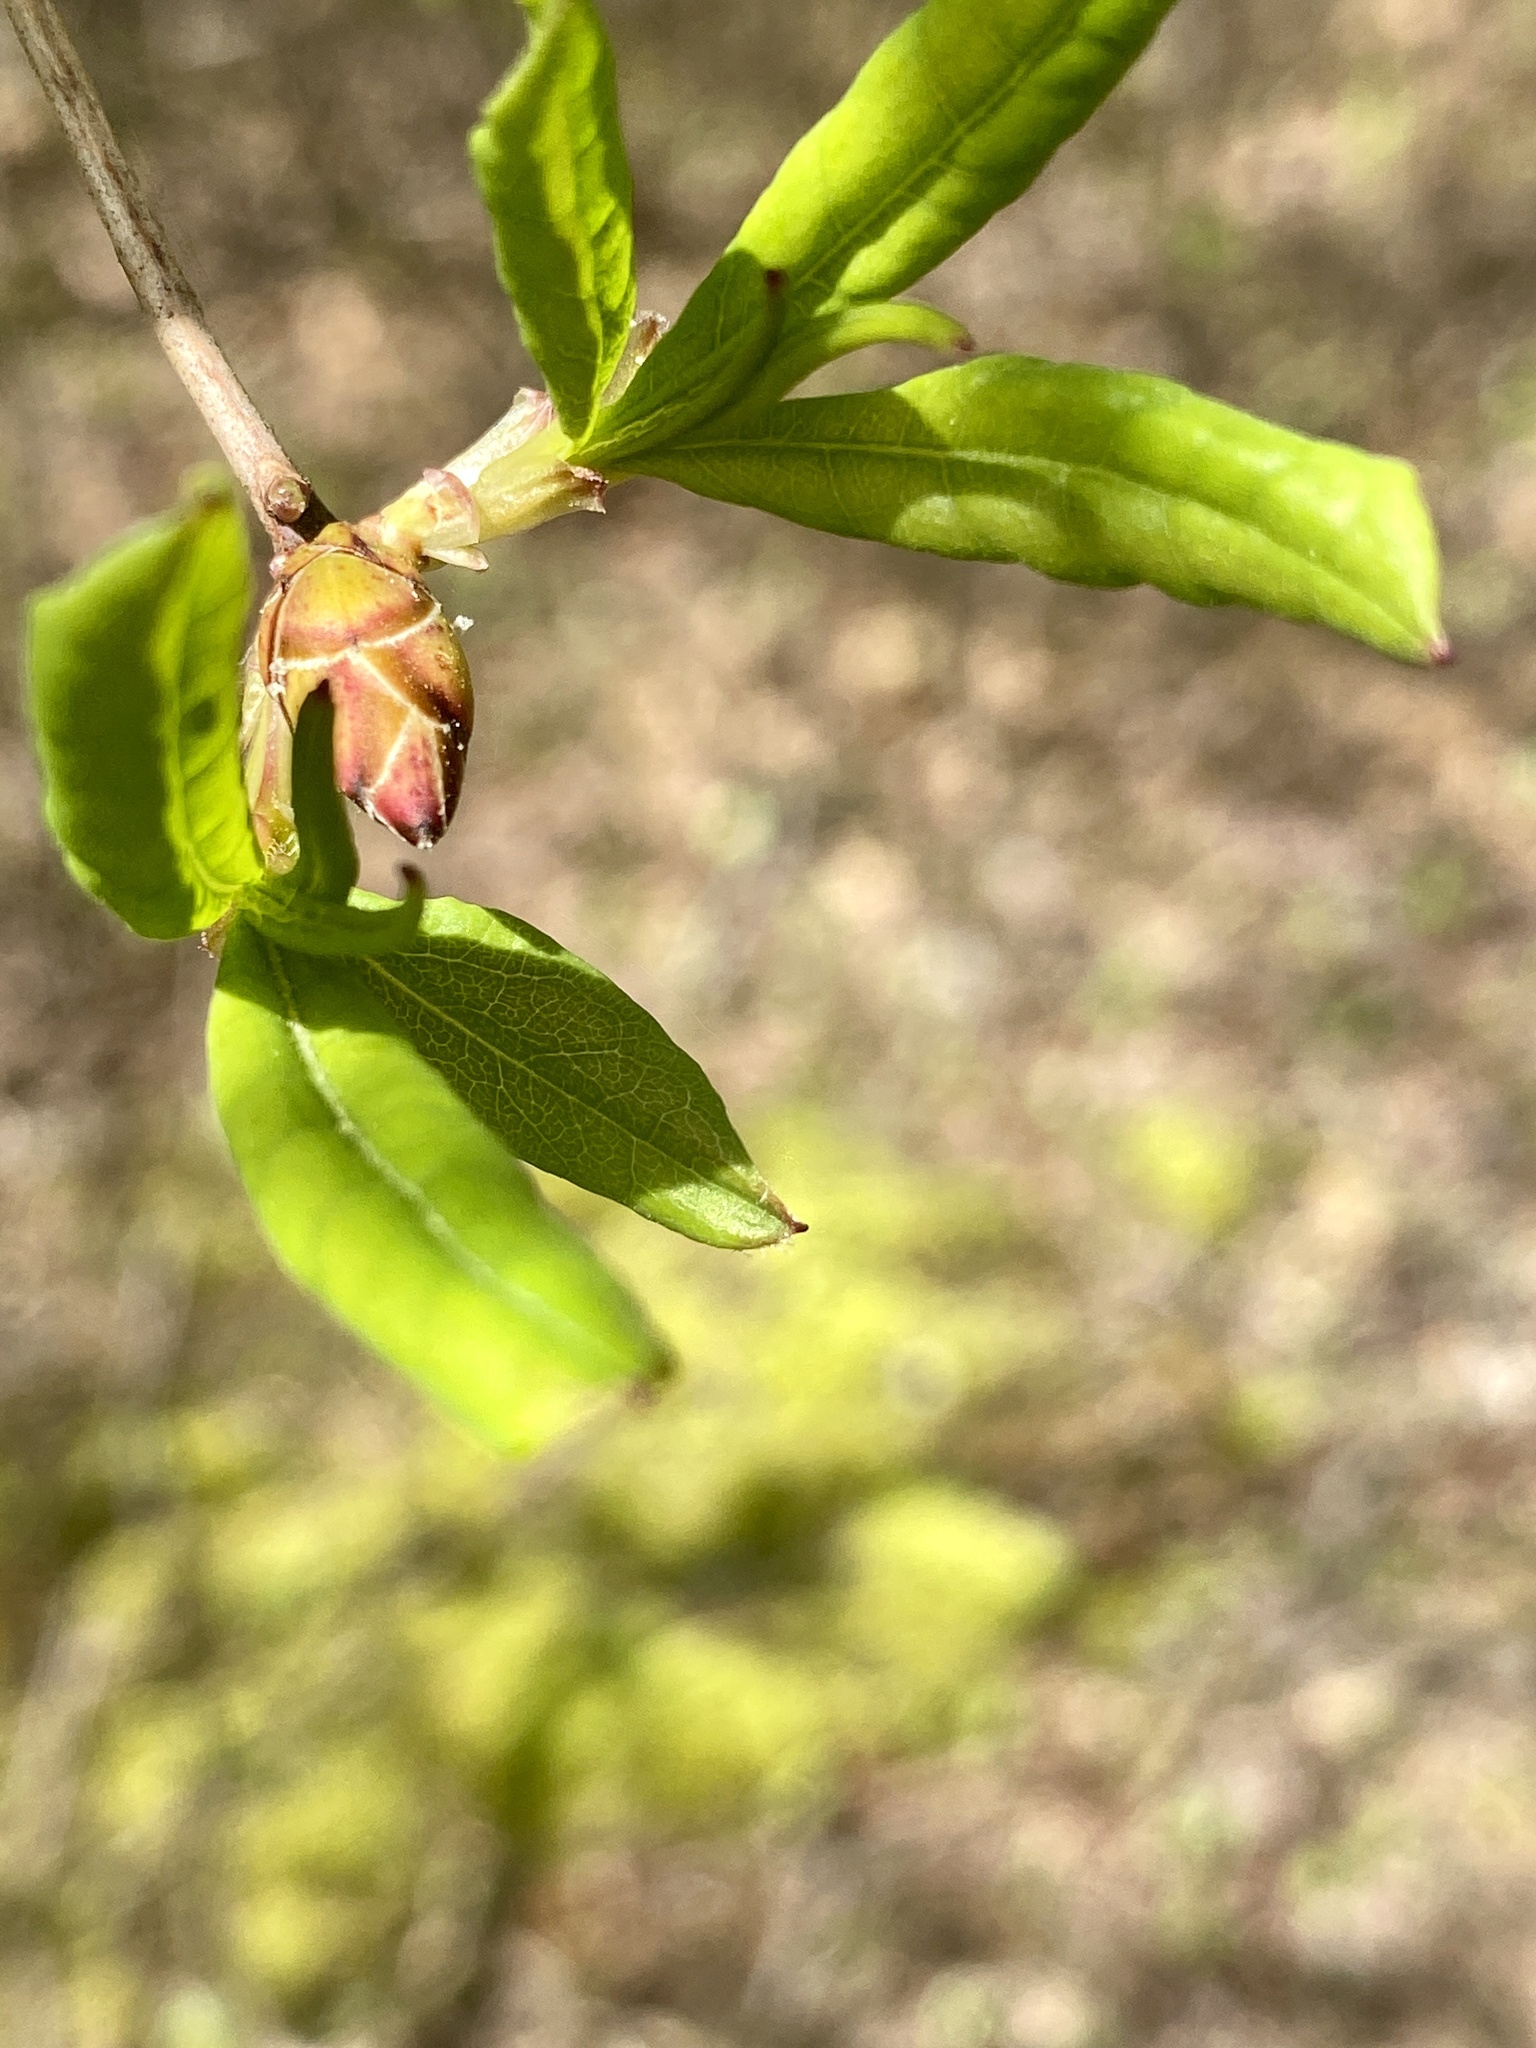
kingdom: Plantae
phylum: Tracheophyta
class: Magnoliopsida
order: Ericales
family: Ericaceae
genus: Rhododendron
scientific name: Rhododendron viscosum
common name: Clammy azalea
